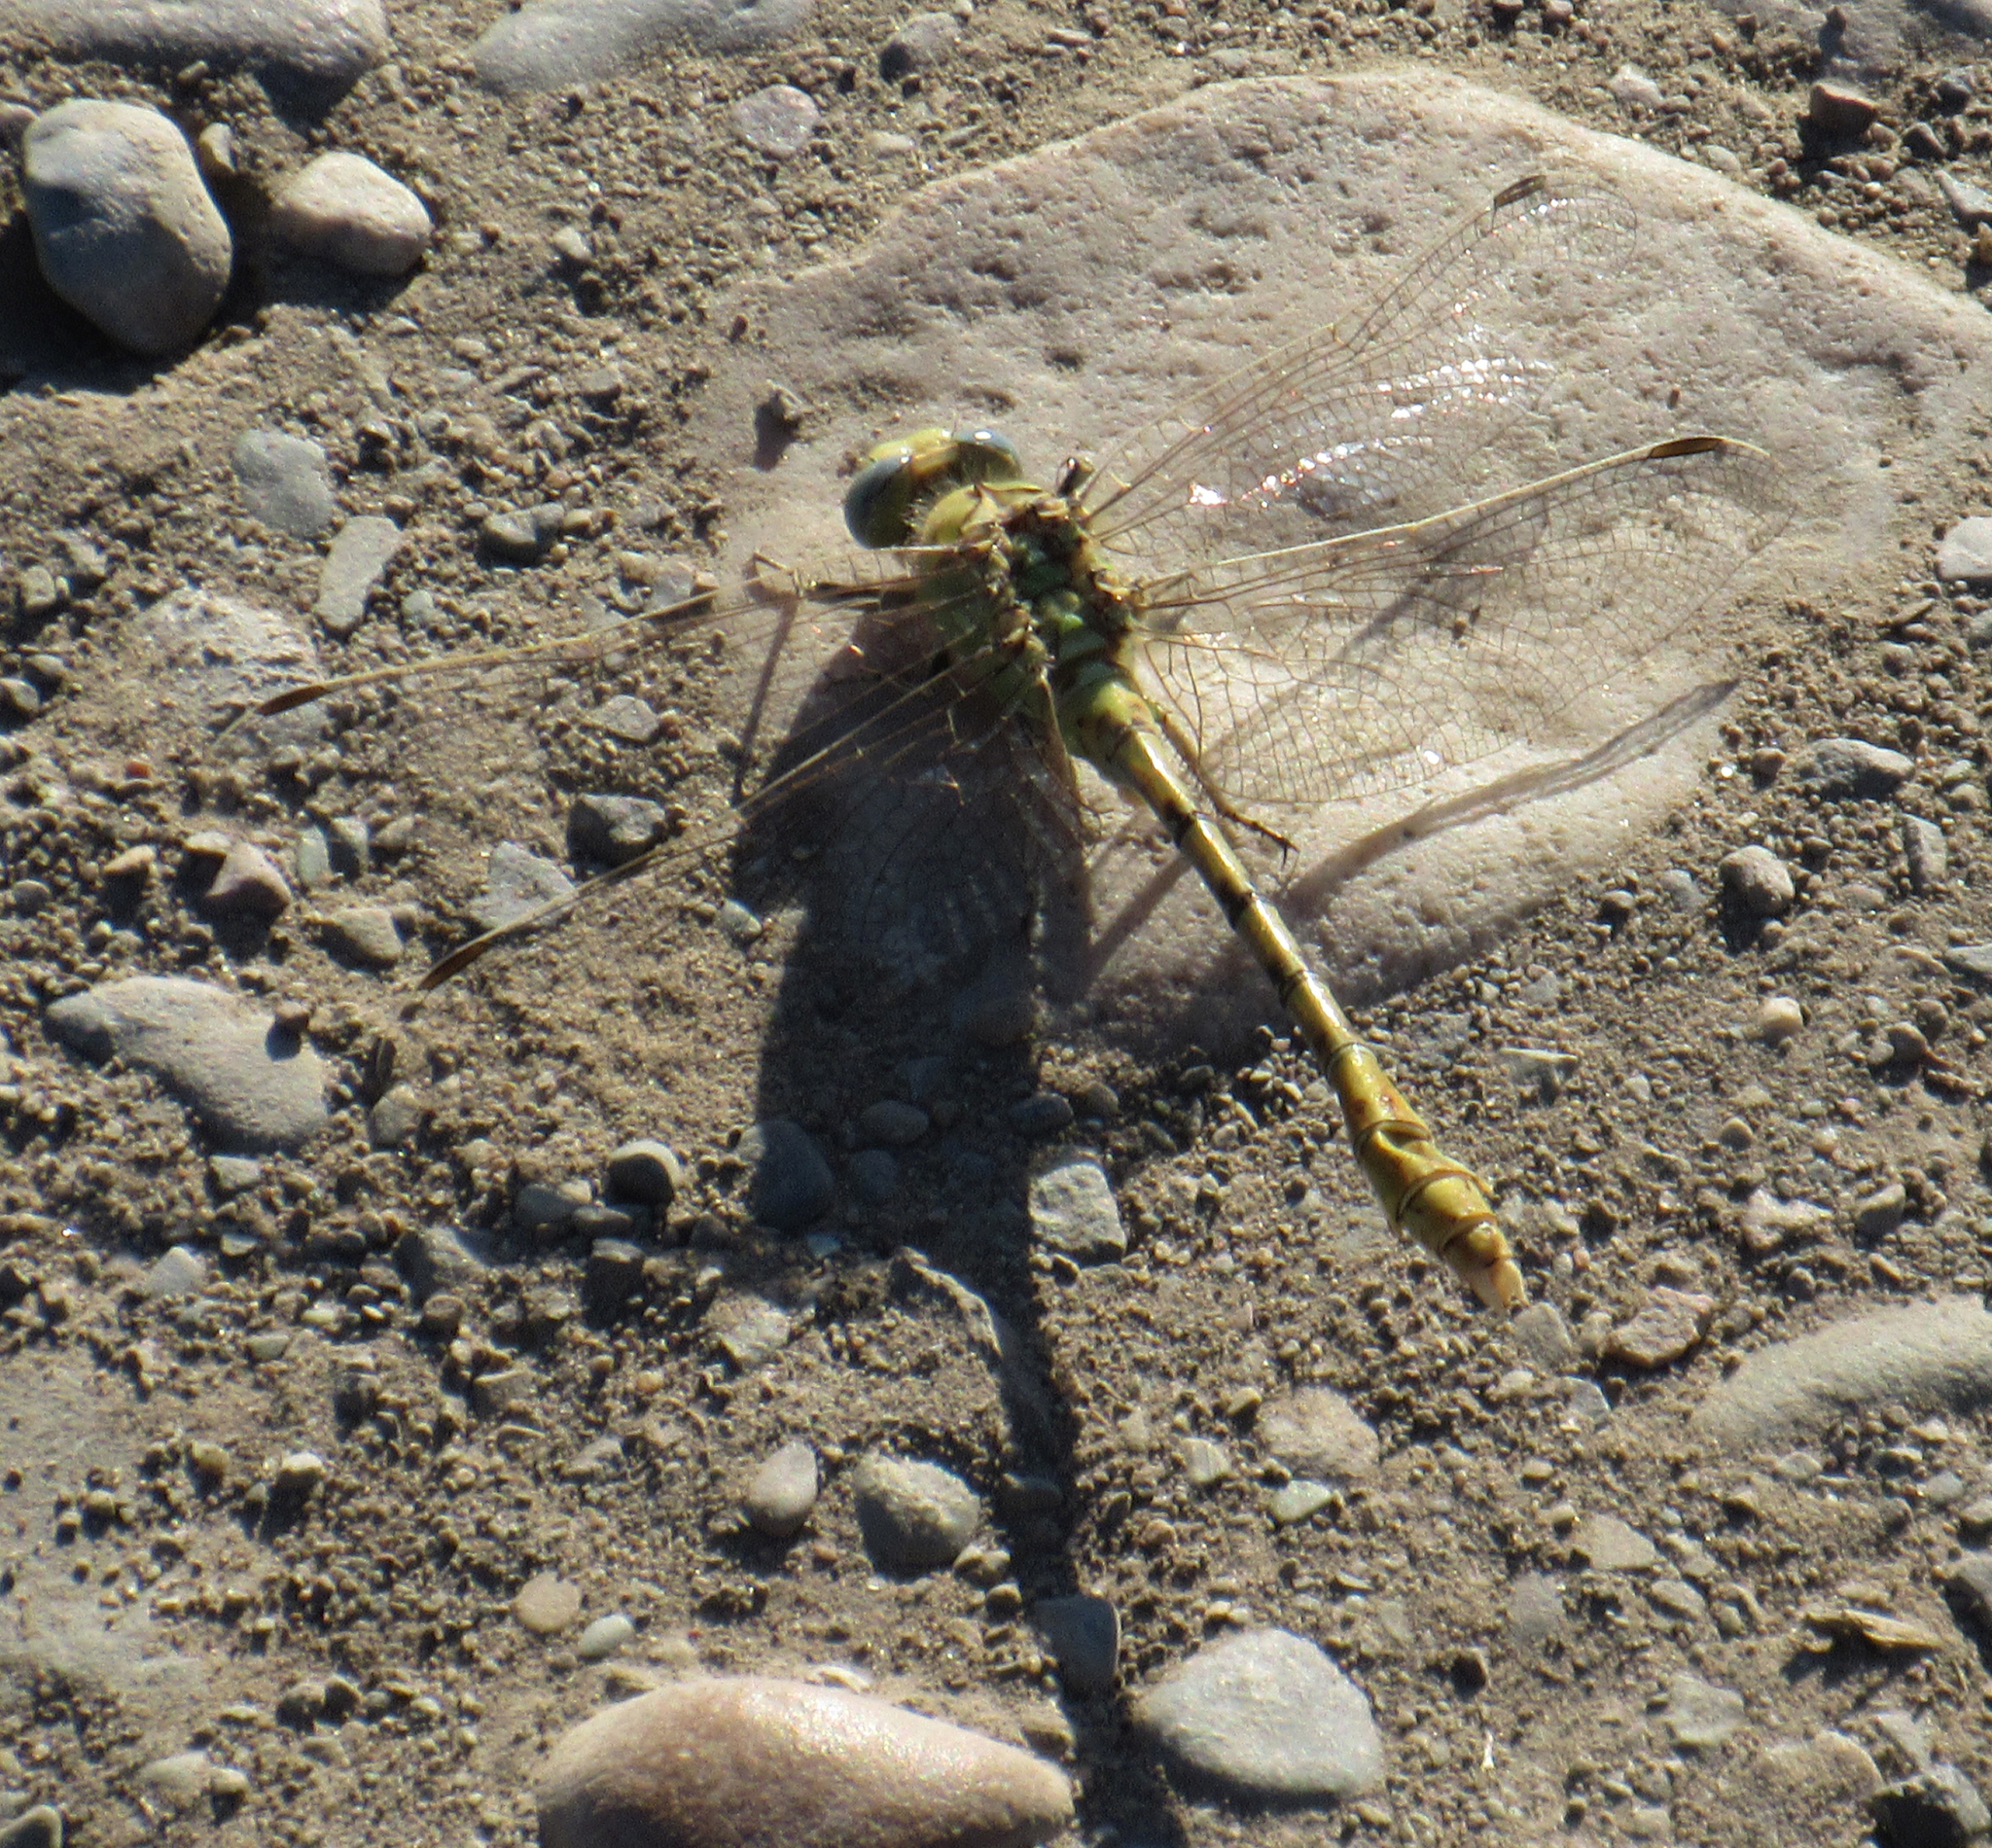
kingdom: Animalia
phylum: Arthropoda
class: Insecta
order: Odonata
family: Gomphidae
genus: Ophiogomphus
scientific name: Ophiogomphus severus
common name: Pale snaketail
